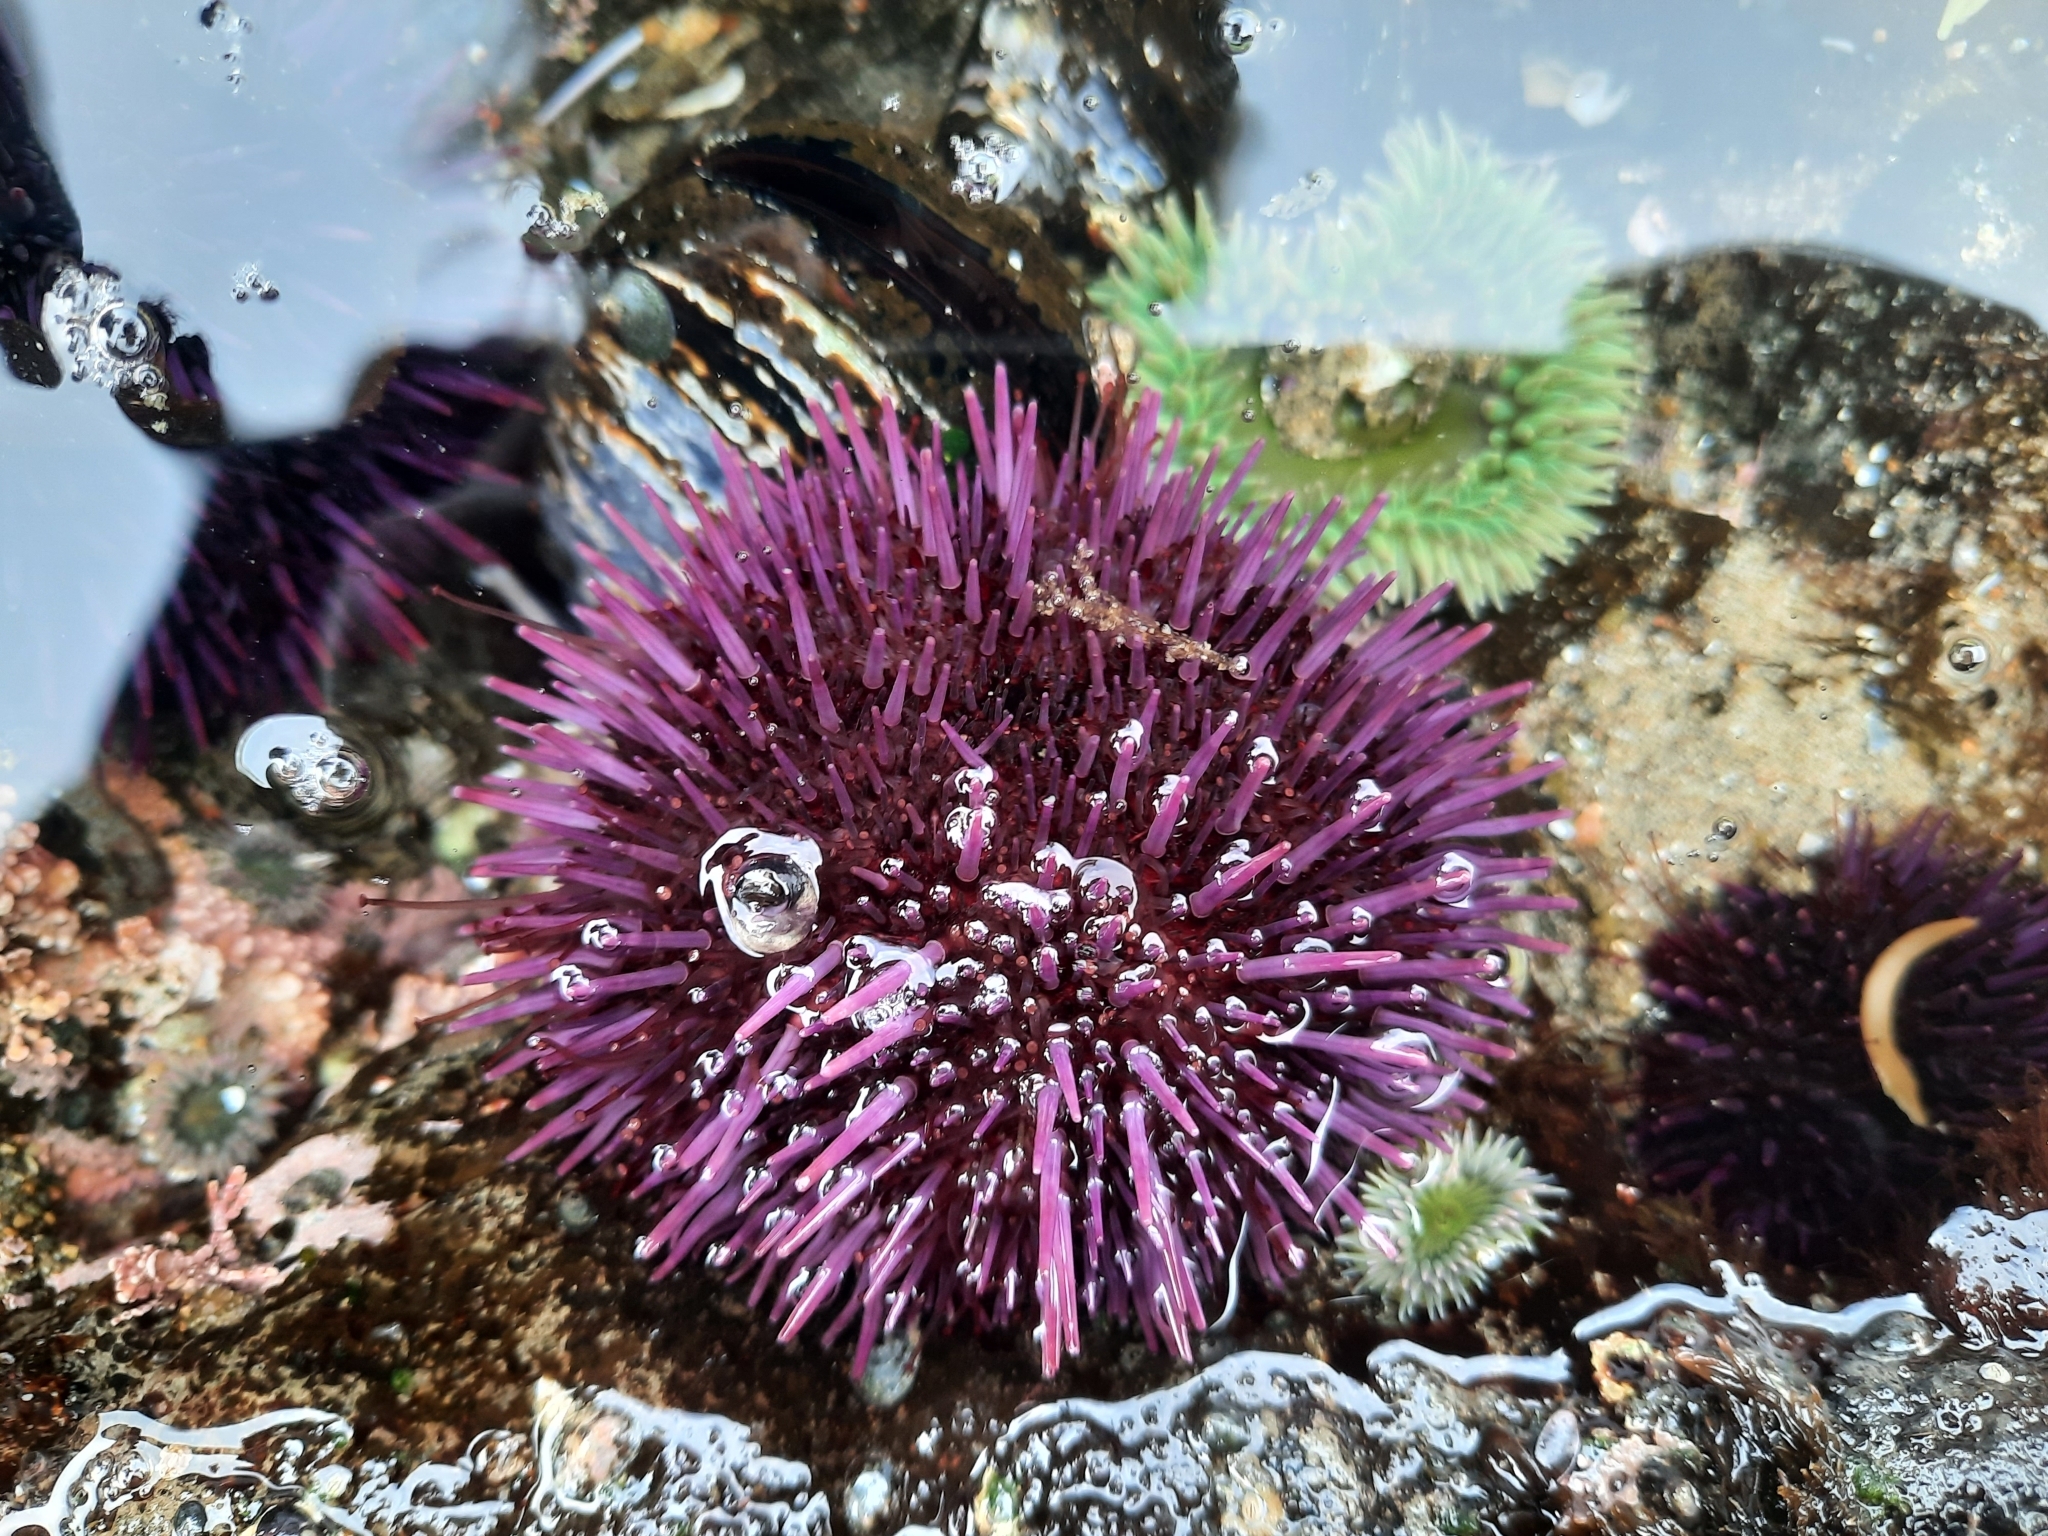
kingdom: Animalia
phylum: Echinodermata
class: Echinoidea
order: Camarodonta
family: Strongylocentrotidae
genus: Strongylocentrotus
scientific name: Strongylocentrotus purpuratus
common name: Purple sea urchin
